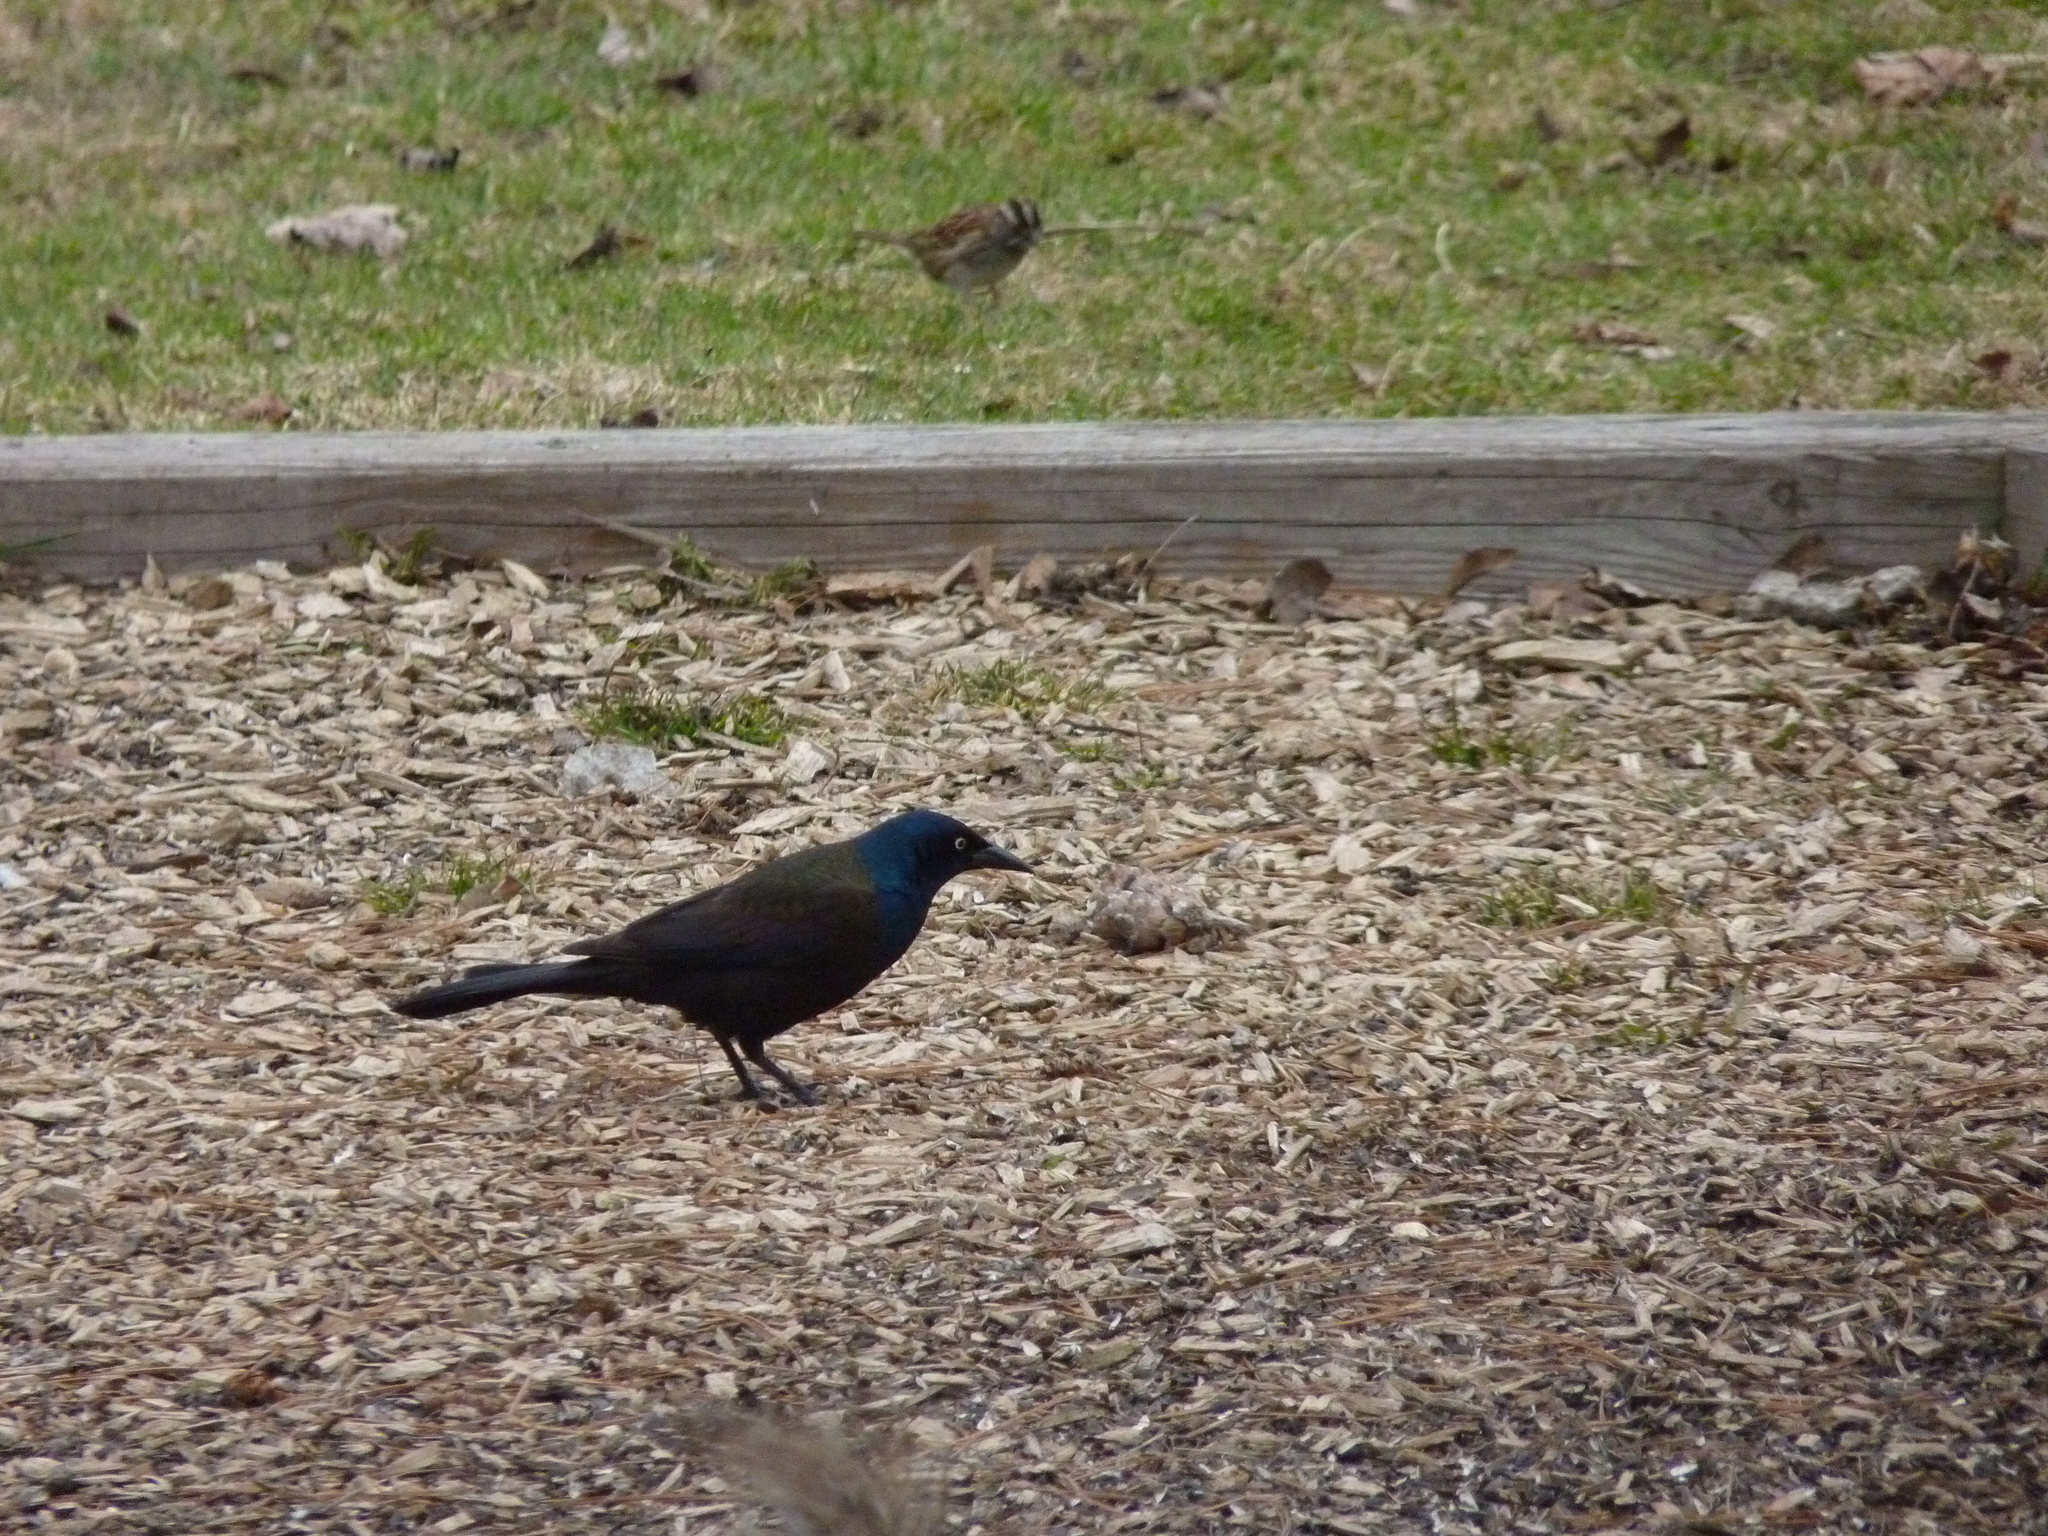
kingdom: Animalia
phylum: Chordata
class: Aves
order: Passeriformes
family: Icteridae
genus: Quiscalus
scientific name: Quiscalus quiscula
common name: Common grackle
